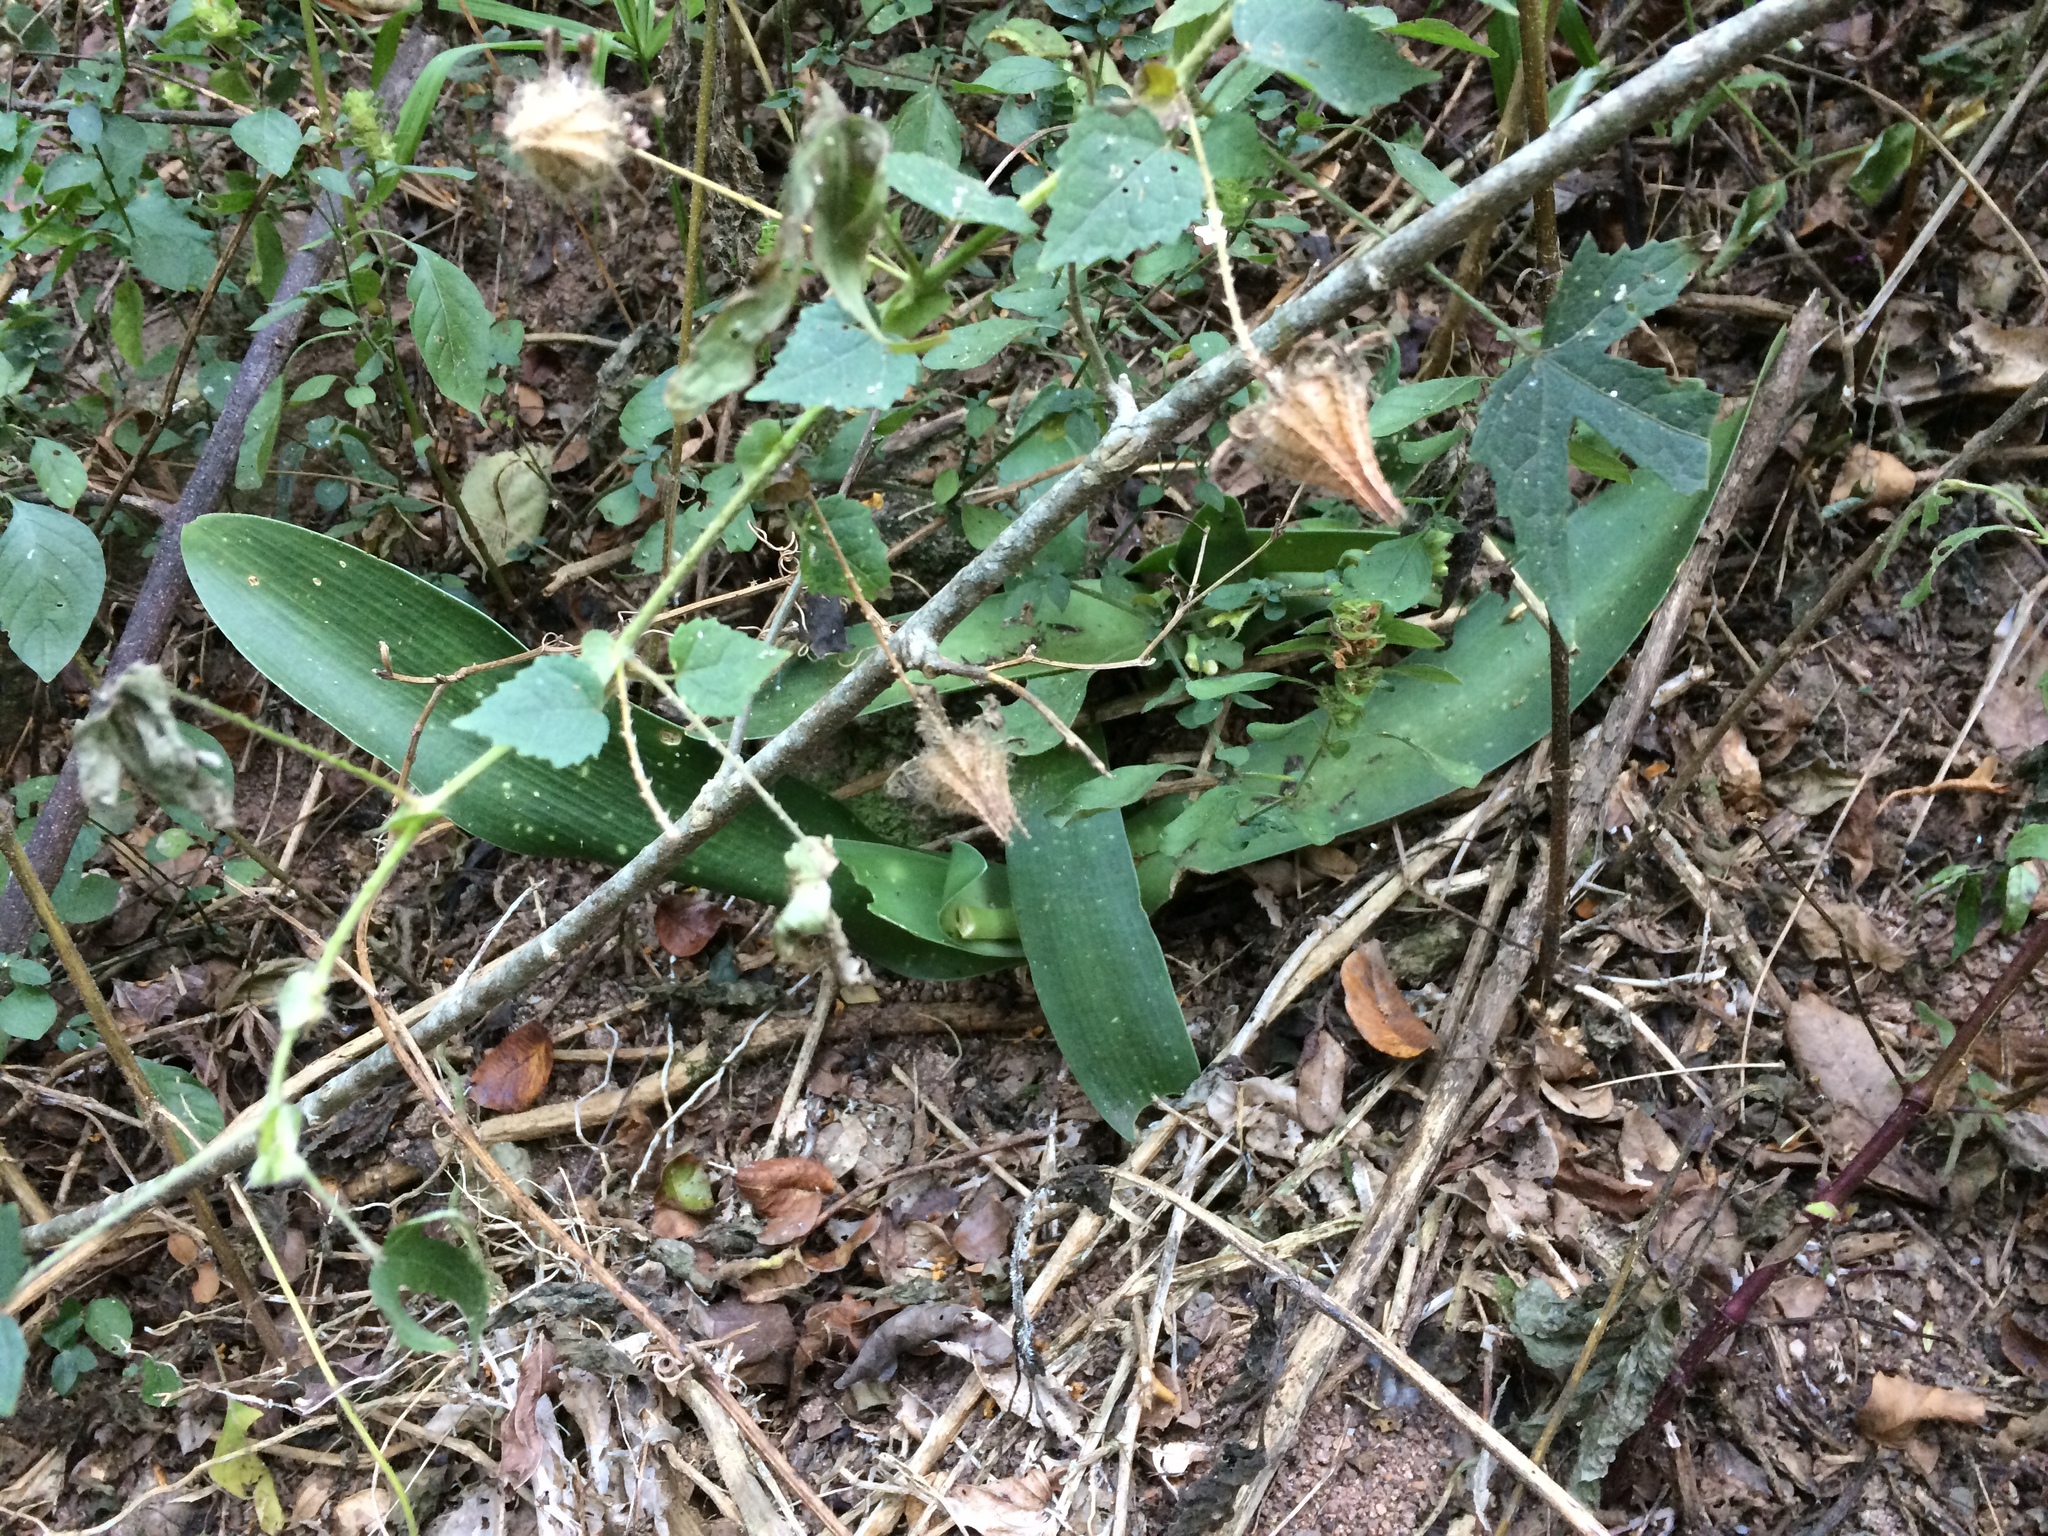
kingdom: Plantae
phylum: Tracheophyta
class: Liliopsida
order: Asparagales
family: Amaryllidaceae
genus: Haemanthus
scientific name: Haemanthus albiflos
